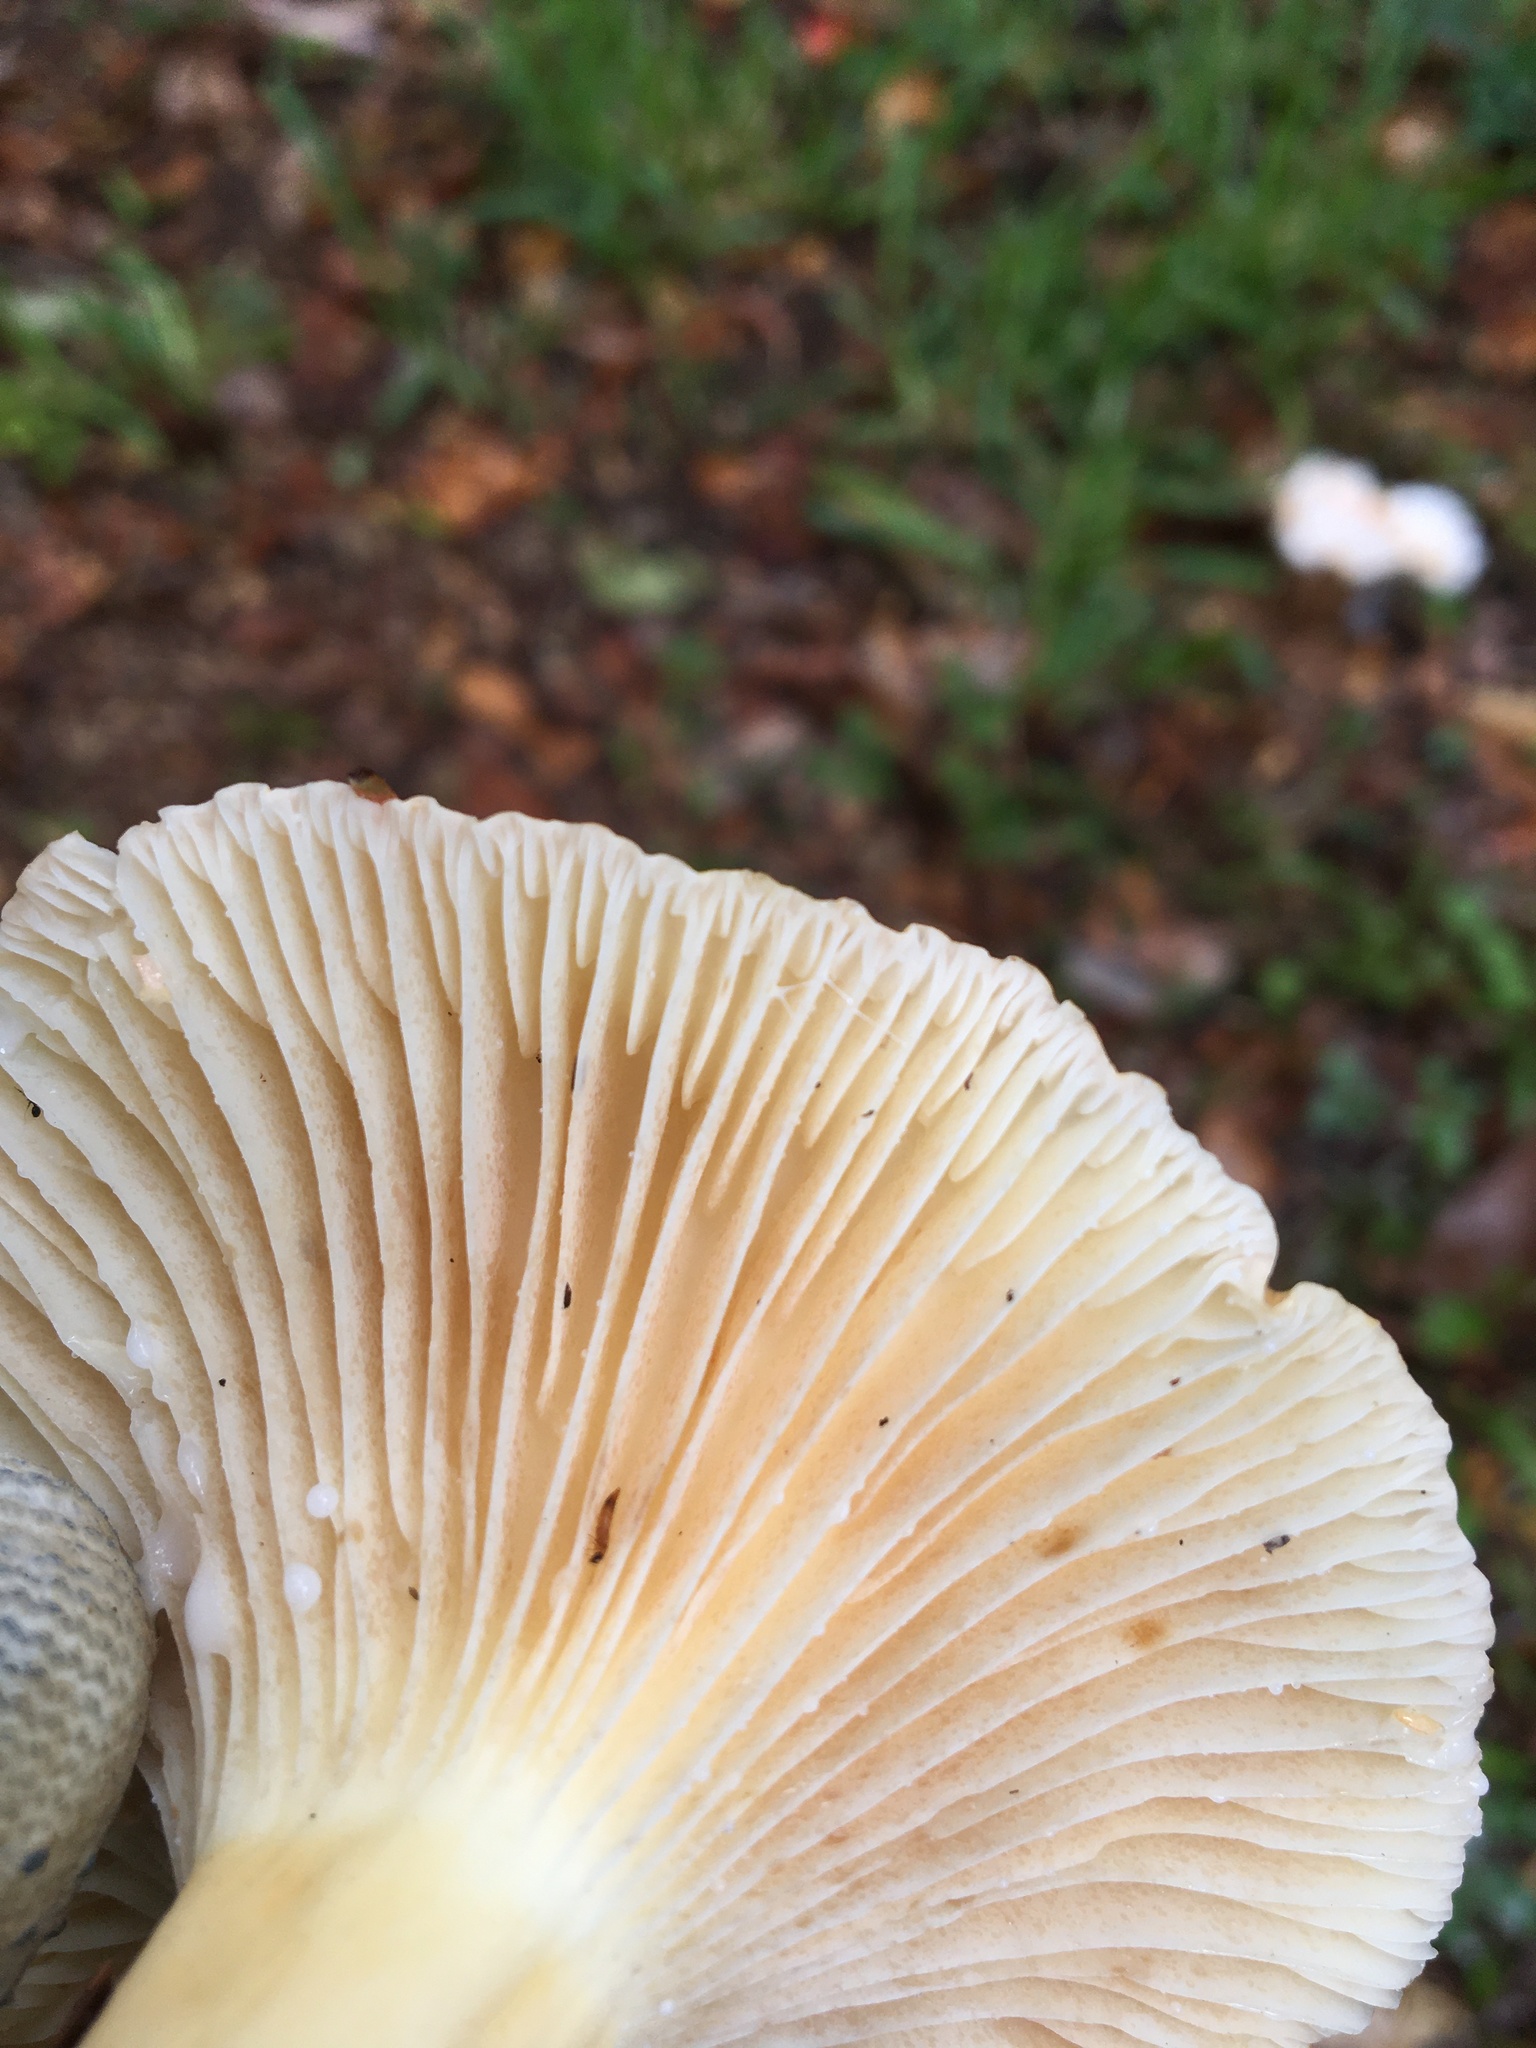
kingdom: Fungi
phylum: Basidiomycota
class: Agaricomycetes
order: Russulales
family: Russulaceae
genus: Lactarius
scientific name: Lactarius hygrophoroides
